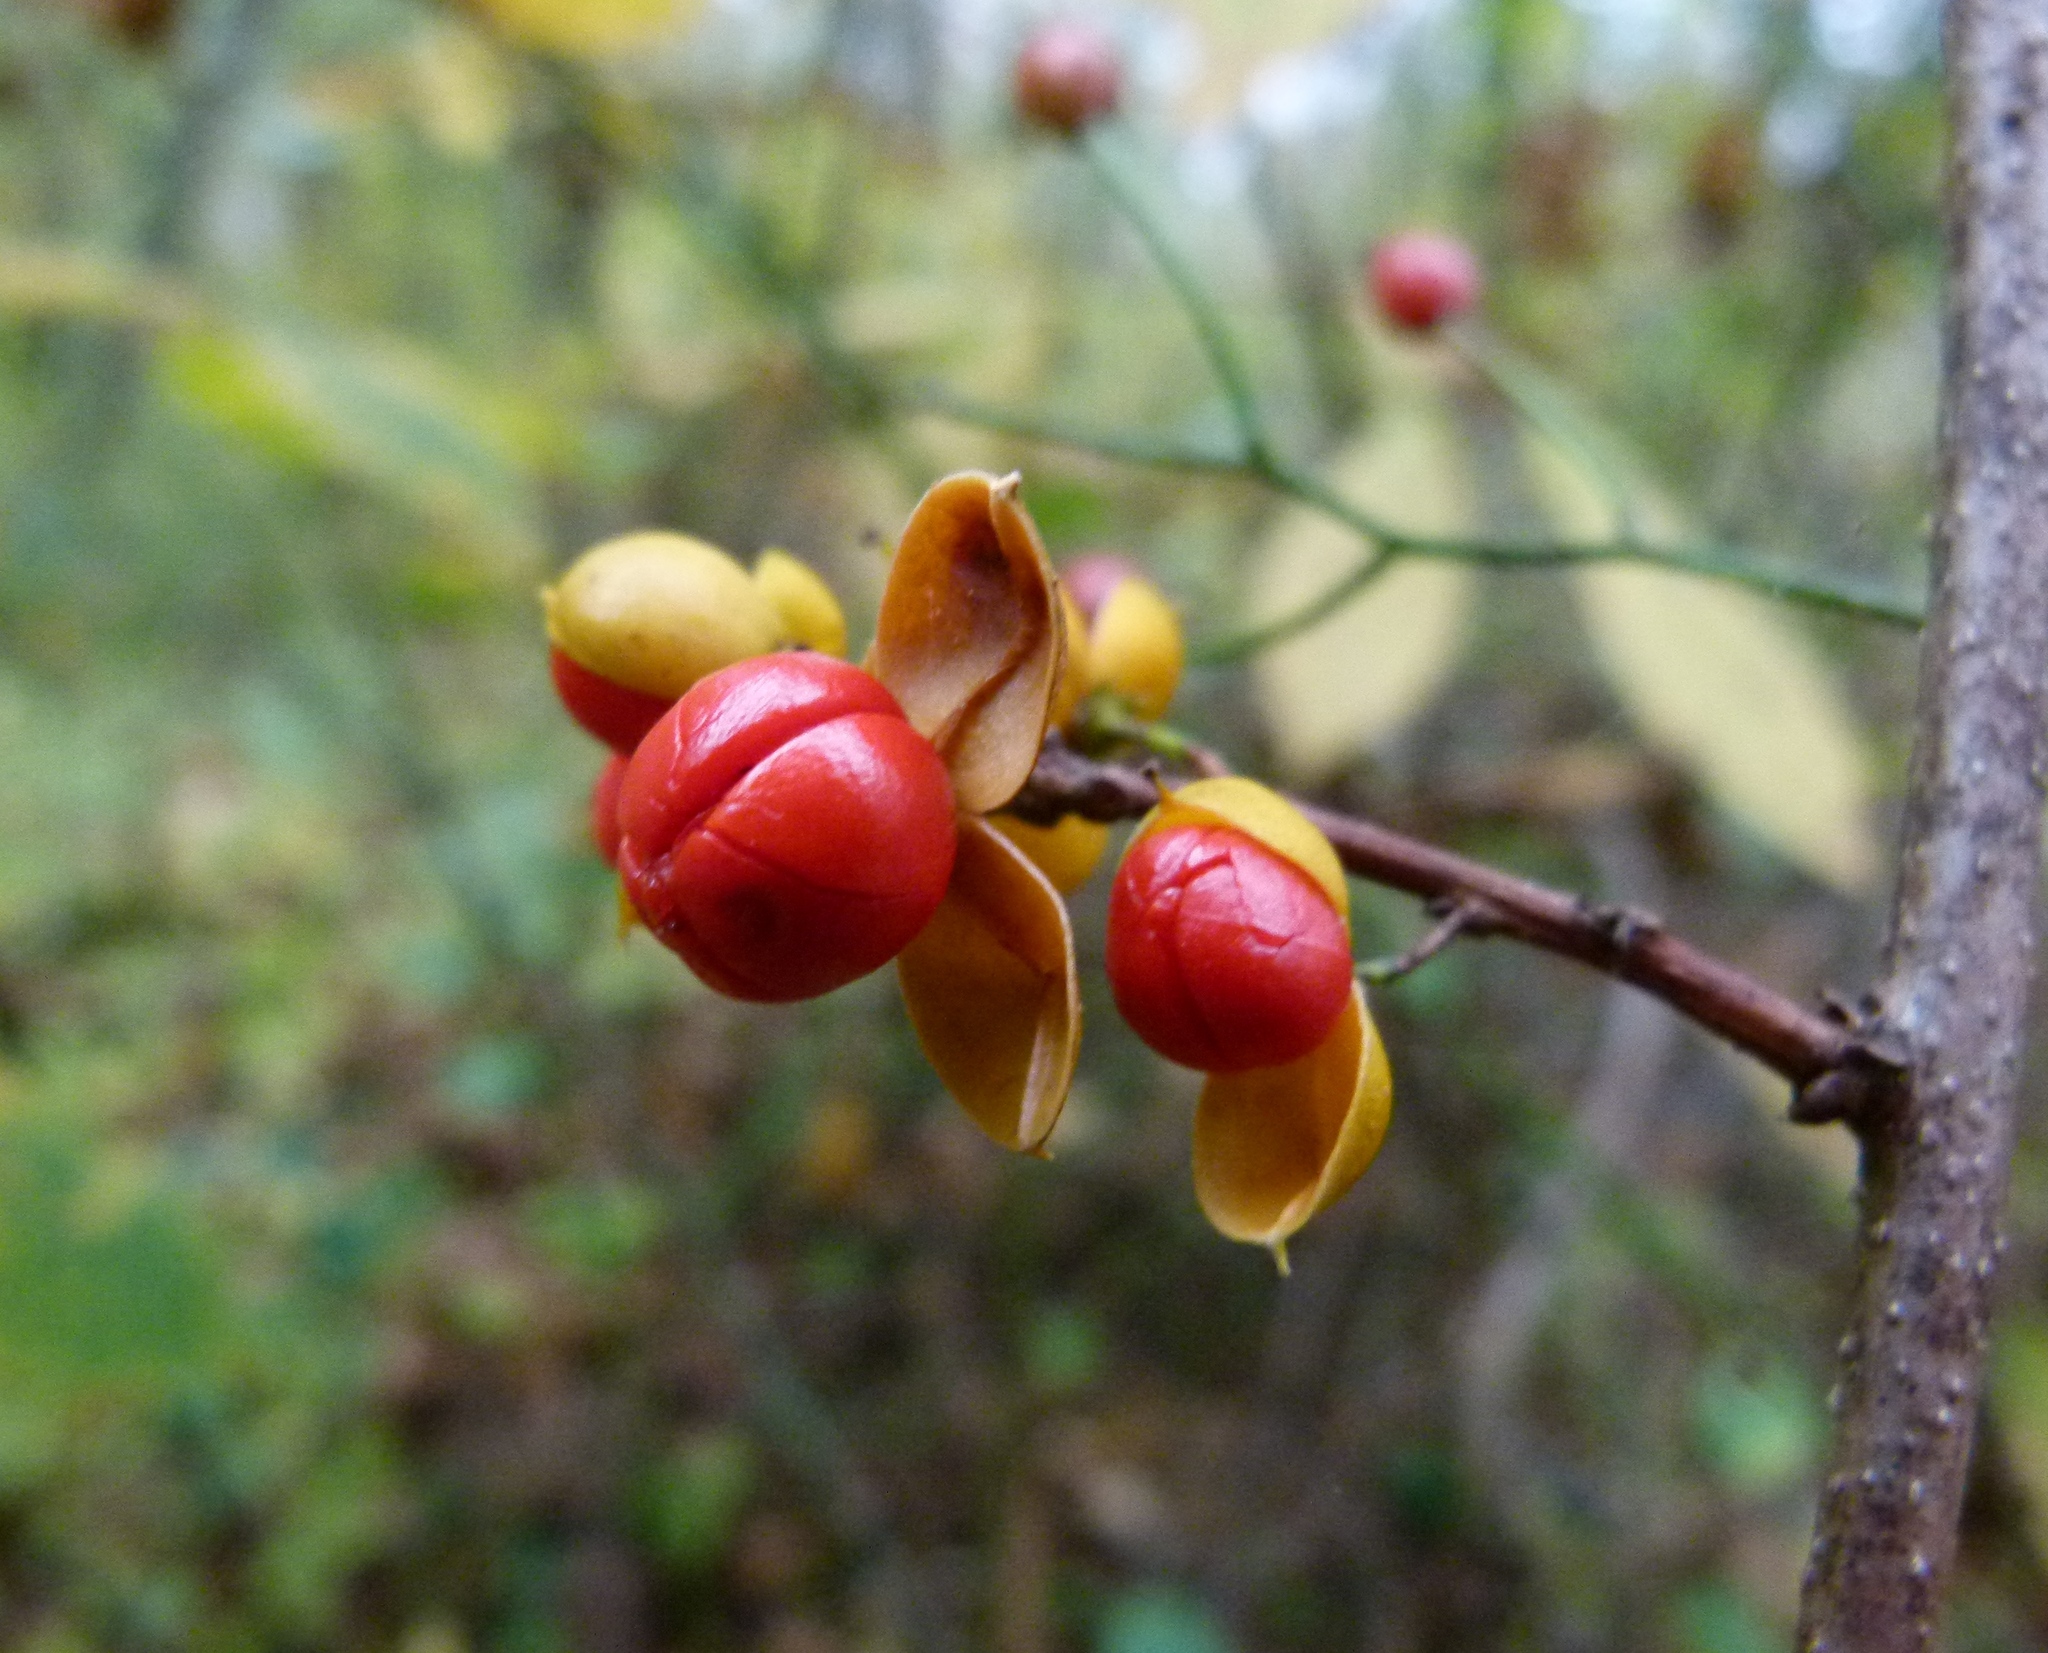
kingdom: Plantae
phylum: Tracheophyta
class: Magnoliopsida
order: Celastrales
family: Celastraceae
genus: Celastrus
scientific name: Celastrus orbiculatus
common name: Oriental bittersweet
